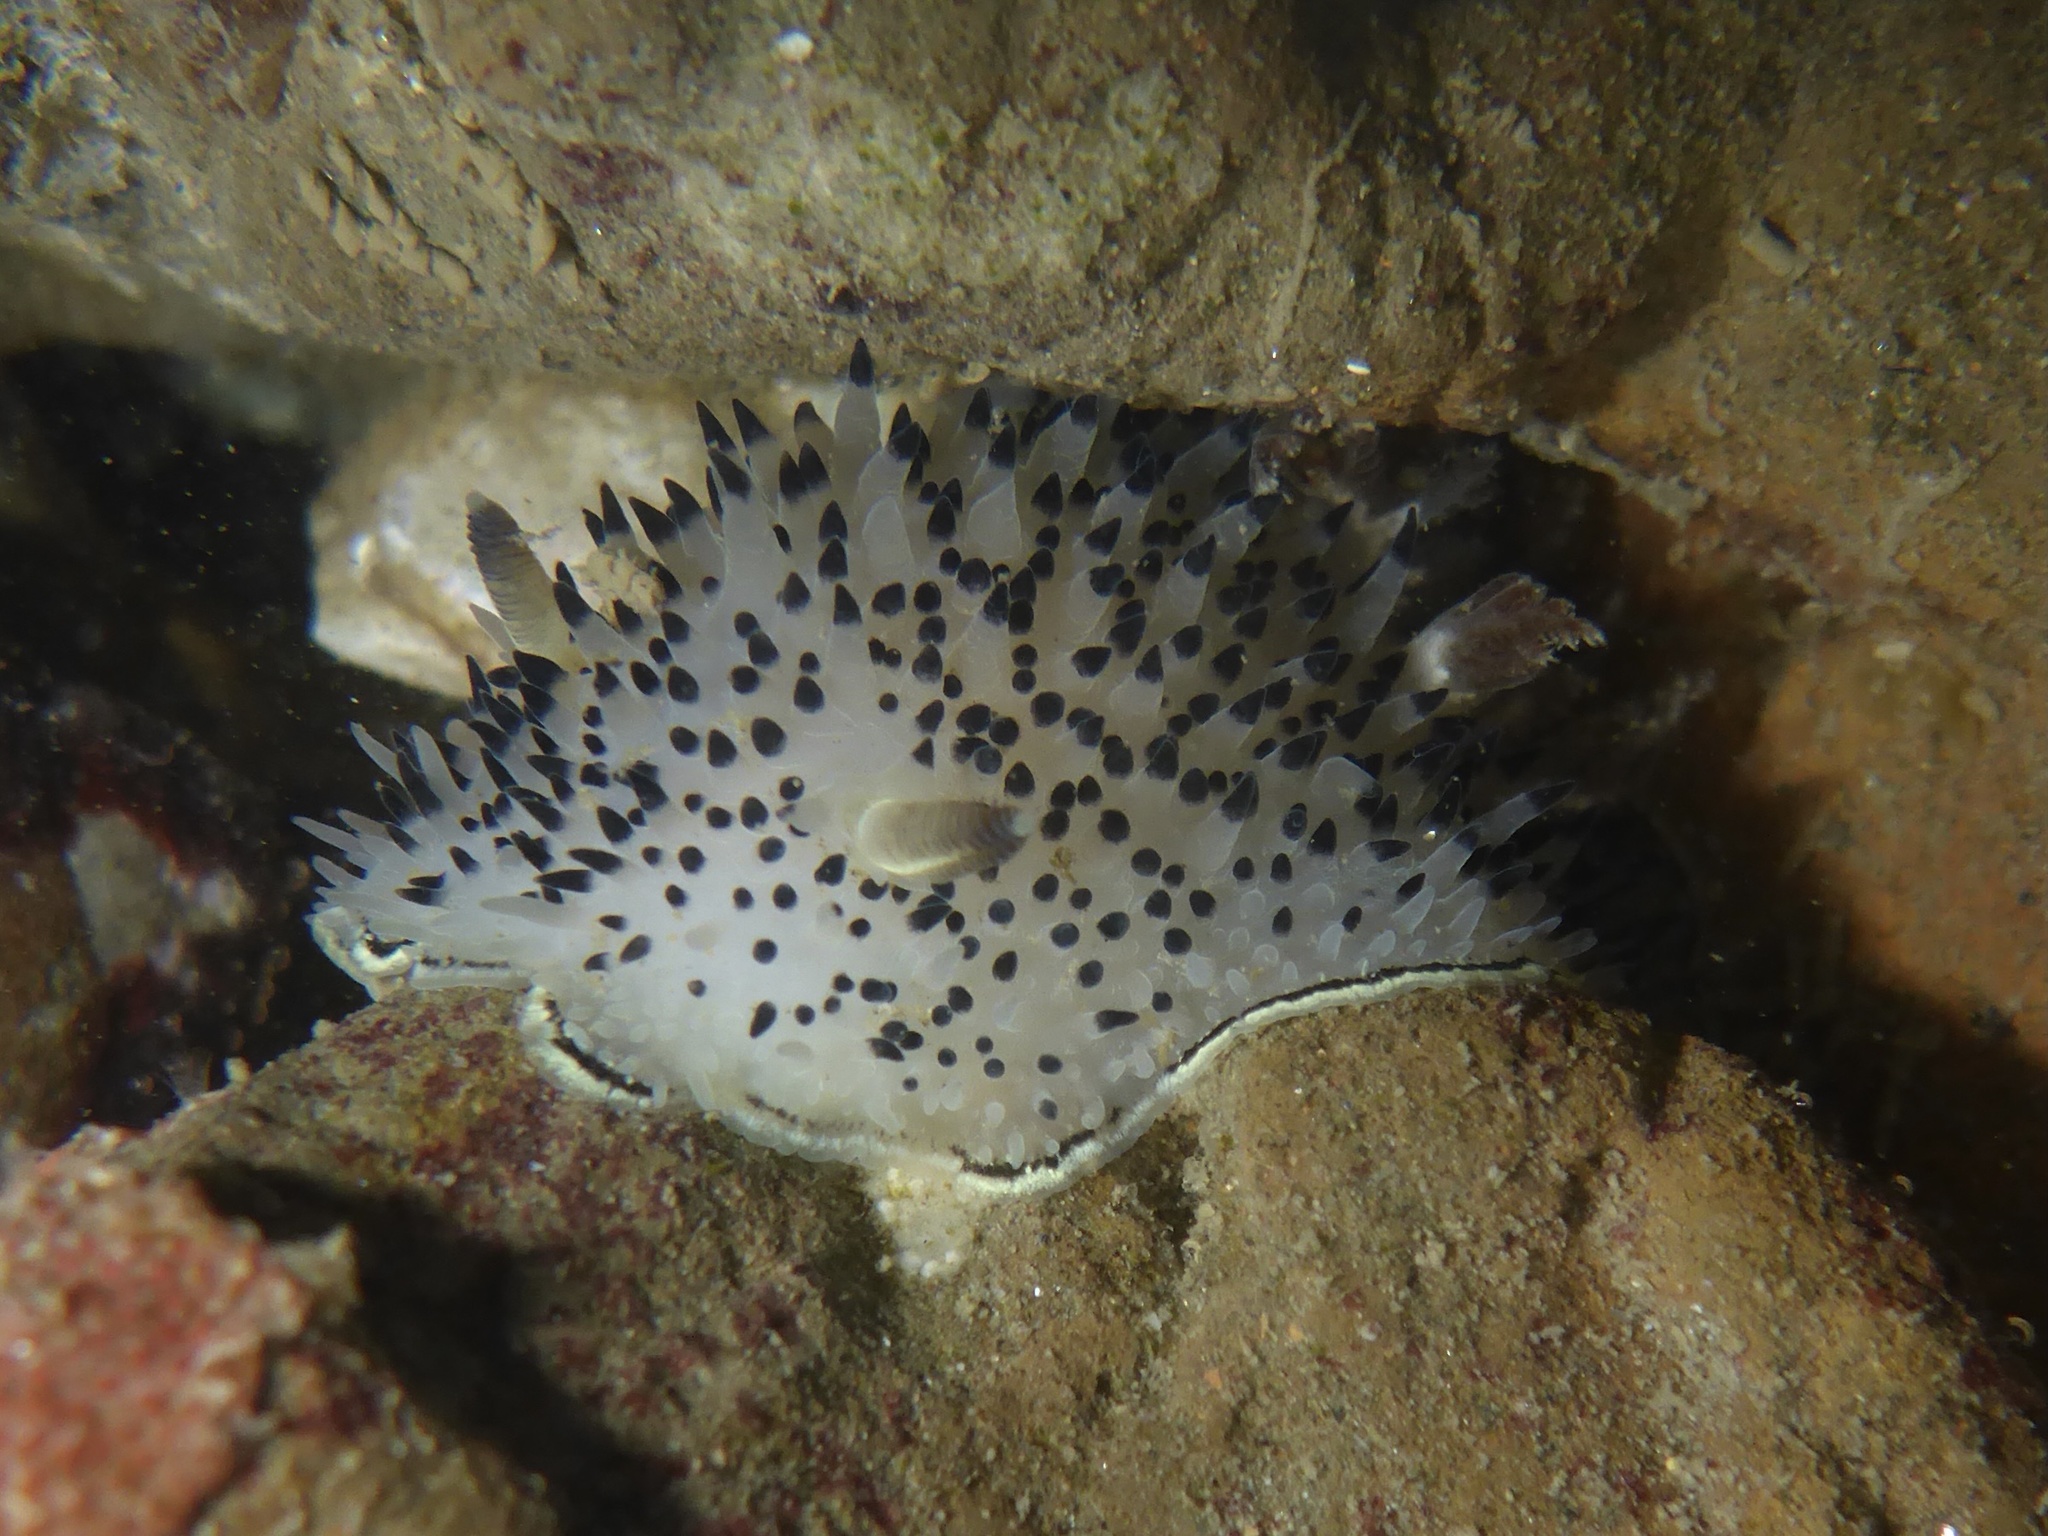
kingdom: Animalia
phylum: Mollusca
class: Gastropoda
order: Nudibranchia
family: Onchidorididae
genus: Acanthodoris
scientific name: Acanthodoris rhodoceras
